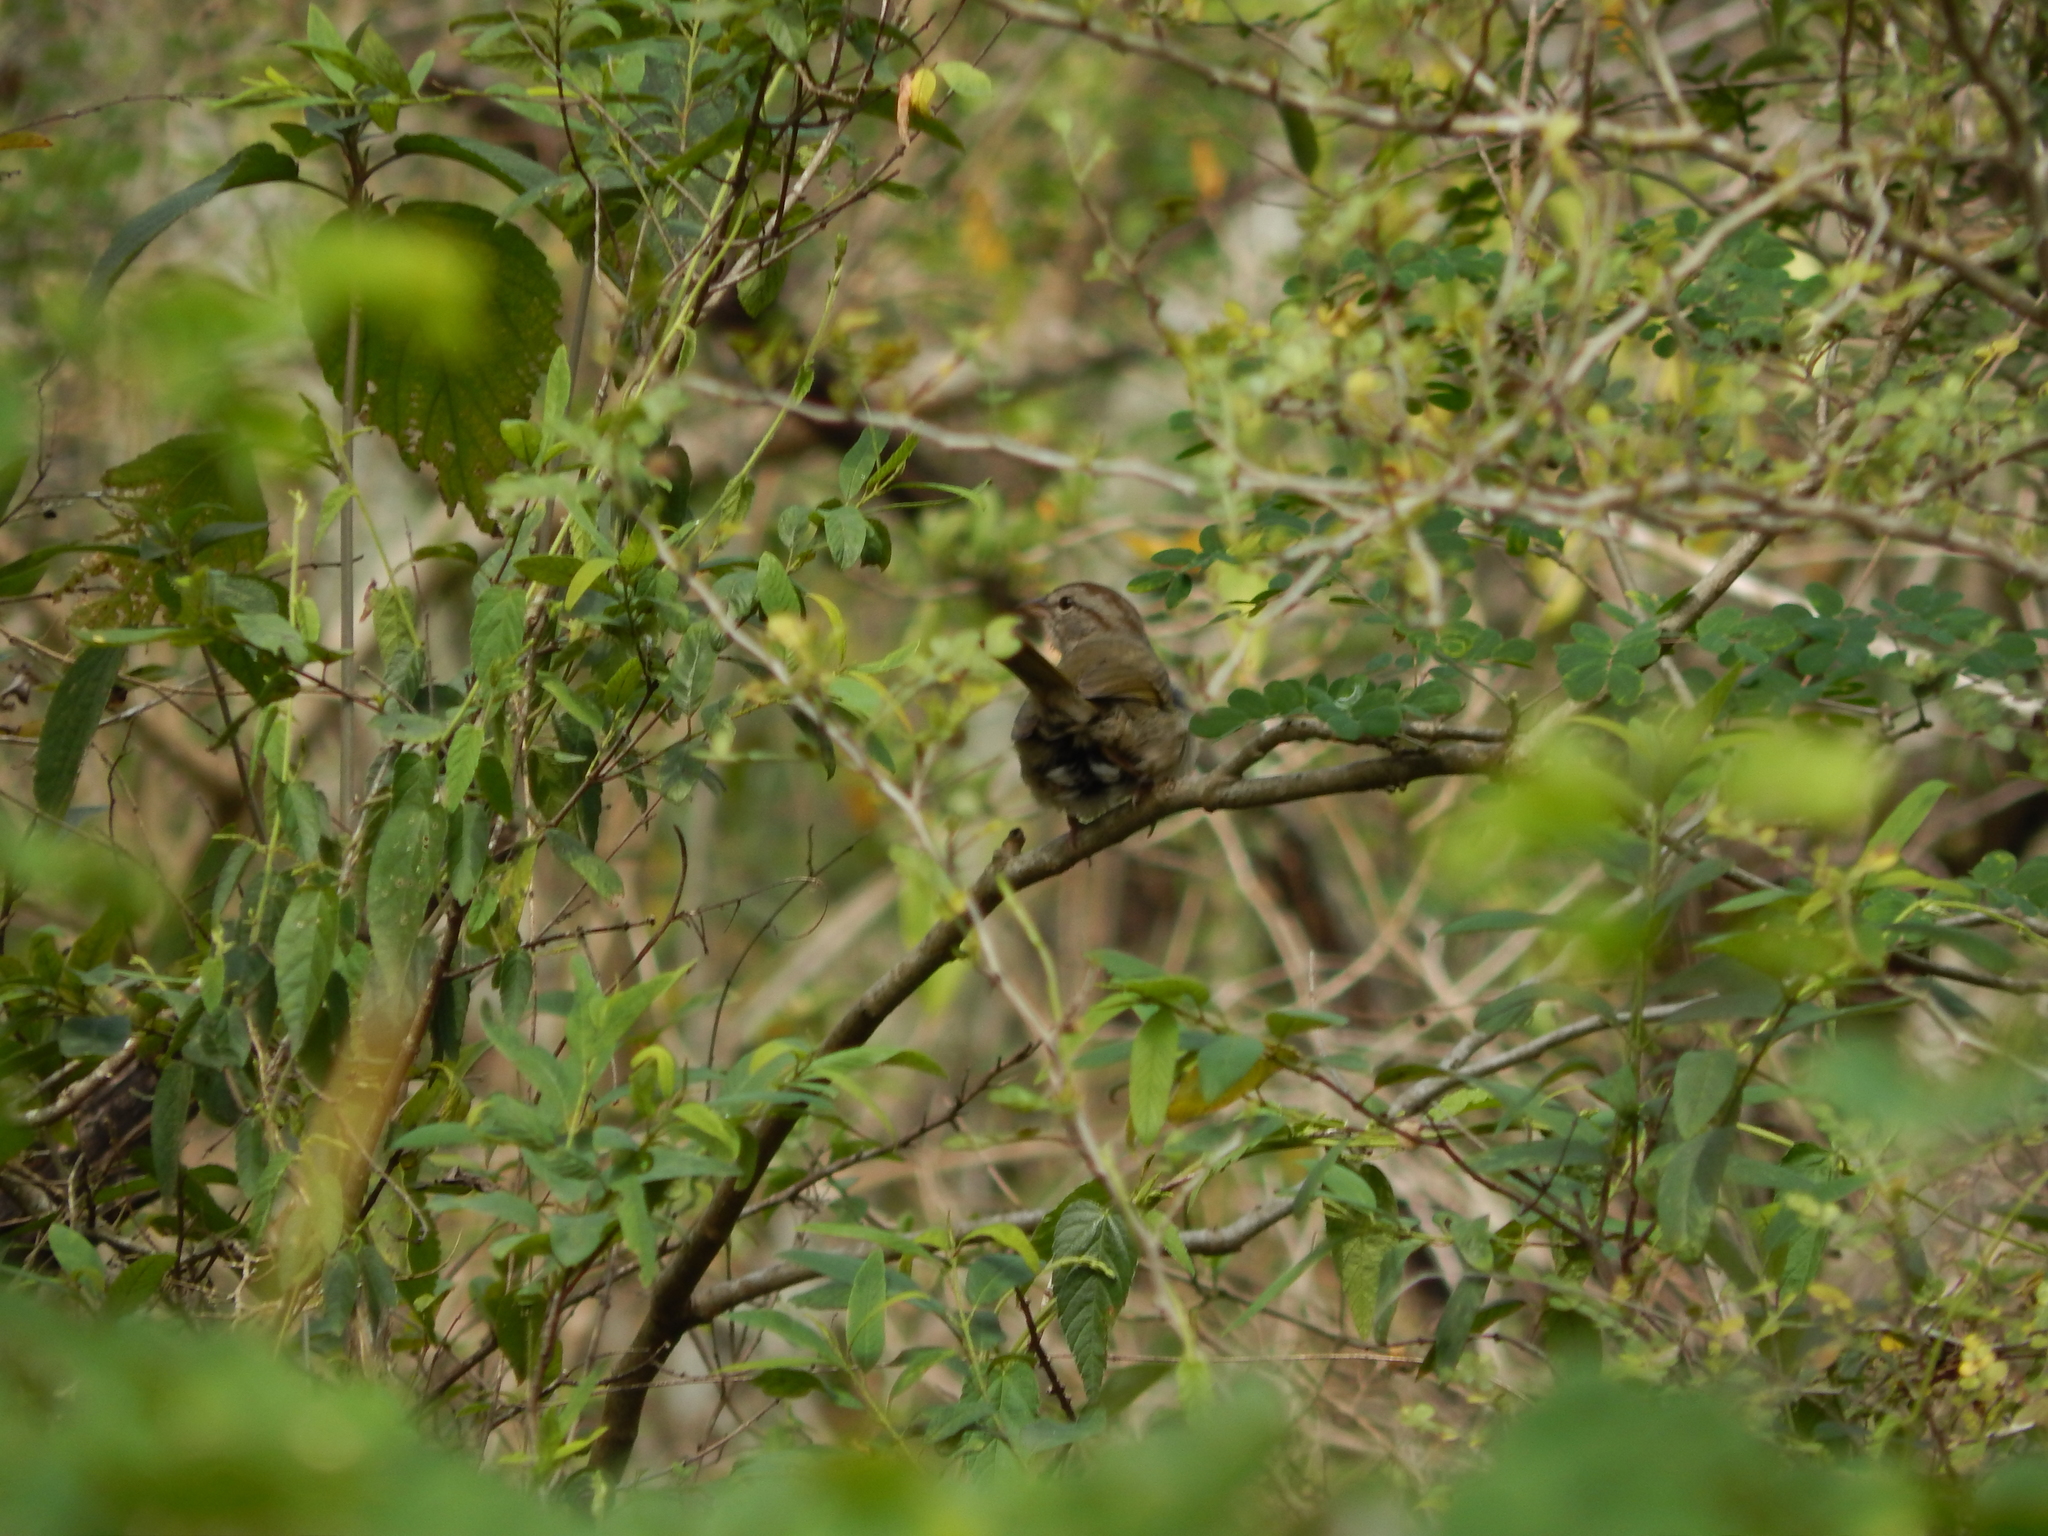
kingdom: Animalia
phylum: Chordata
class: Aves
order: Passeriformes
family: Passerellidae
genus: Arremonops
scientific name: Arremonops rufivirgatus
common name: Olive sparrow
